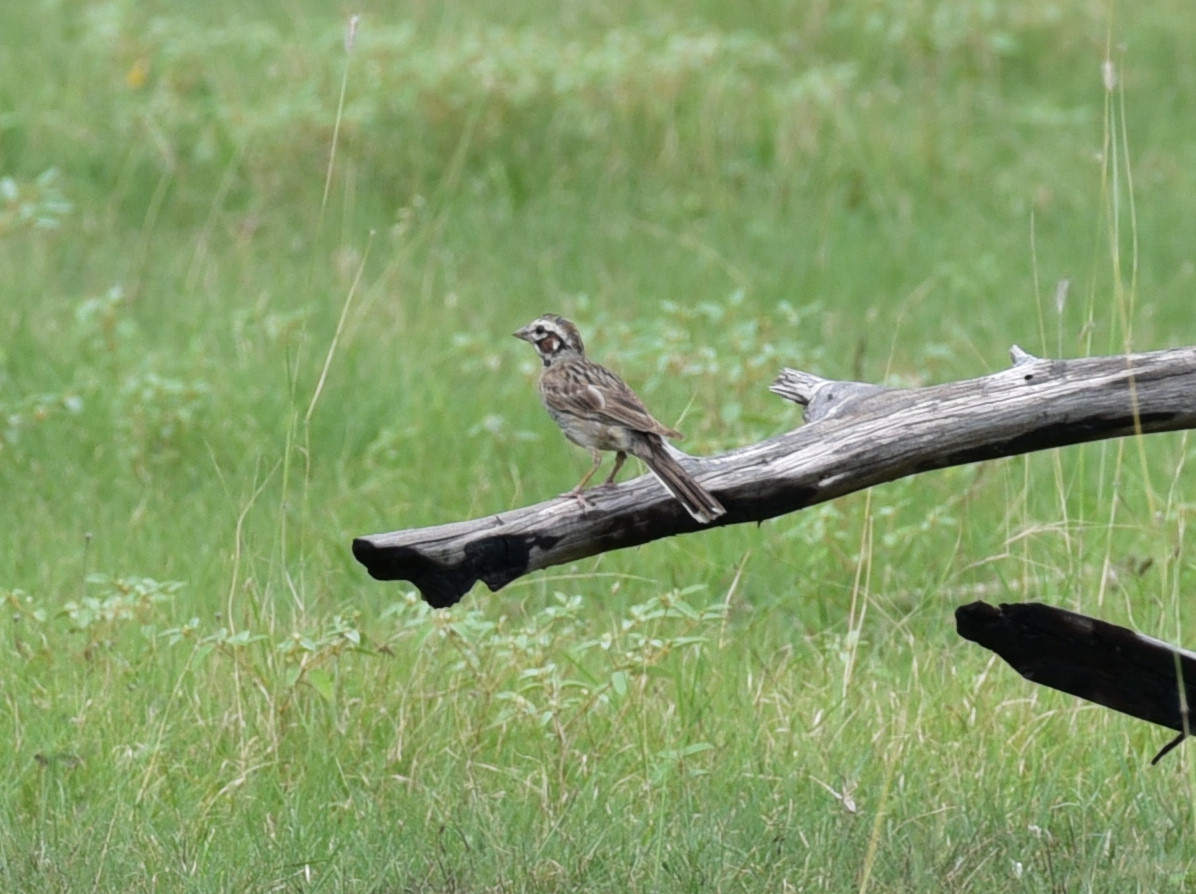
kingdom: Animalia
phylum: Chordata
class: Aves
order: Passeriformes
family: Passerellidae
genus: Chondestes
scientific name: Chondestes grammacus
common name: Lark sparrow
